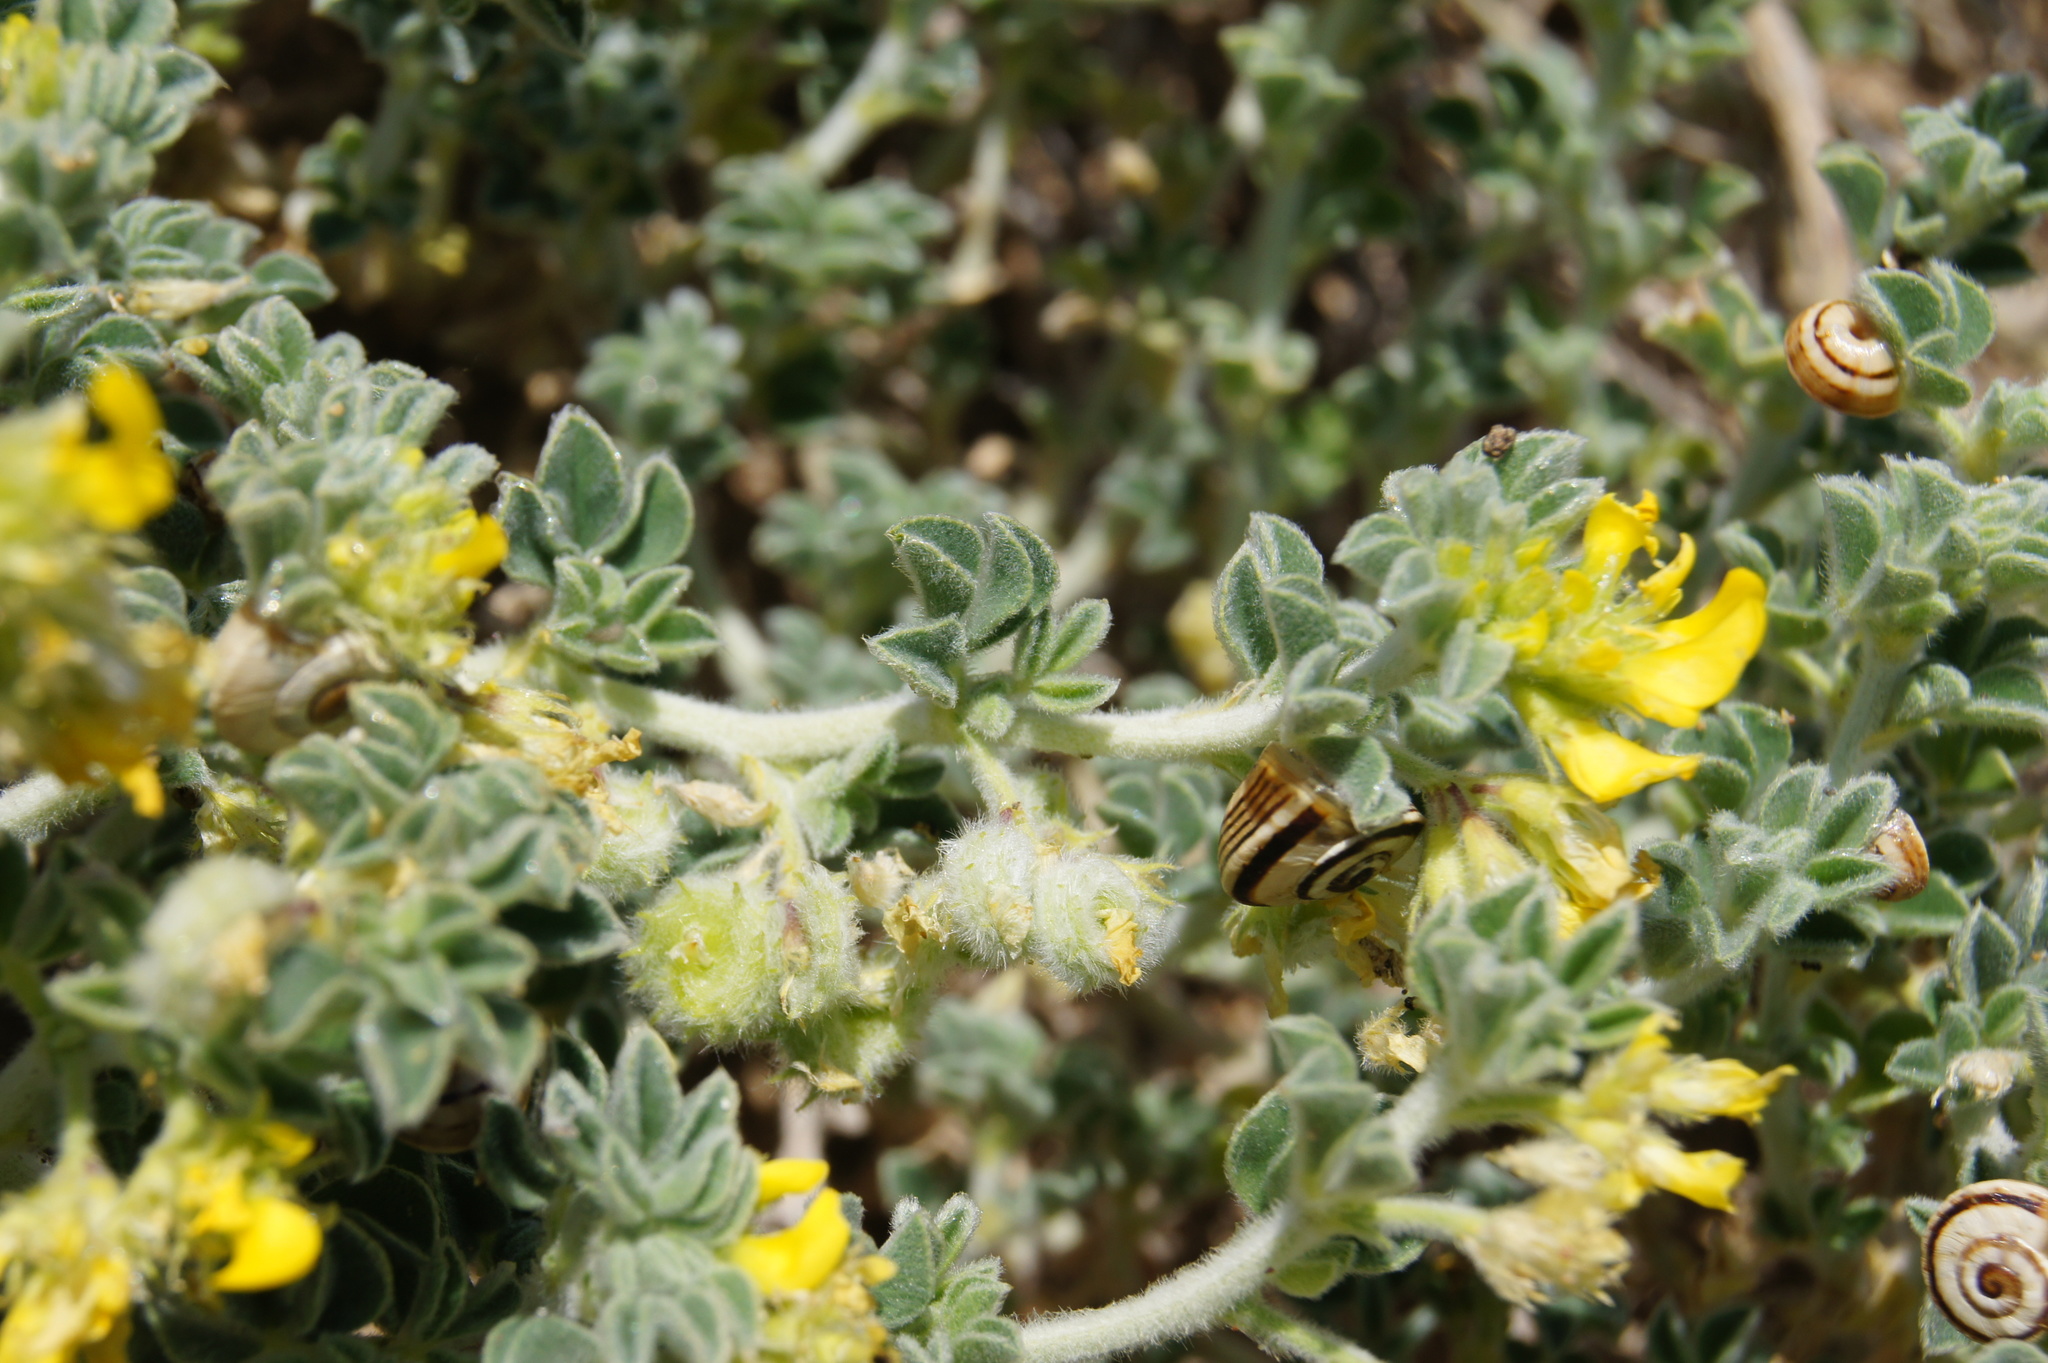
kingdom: Plantae
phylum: Tracheophyta
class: Magnoliopsida
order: Fabales
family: Fabaceae
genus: Medicago
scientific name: Medicago marina
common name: Sea medick
